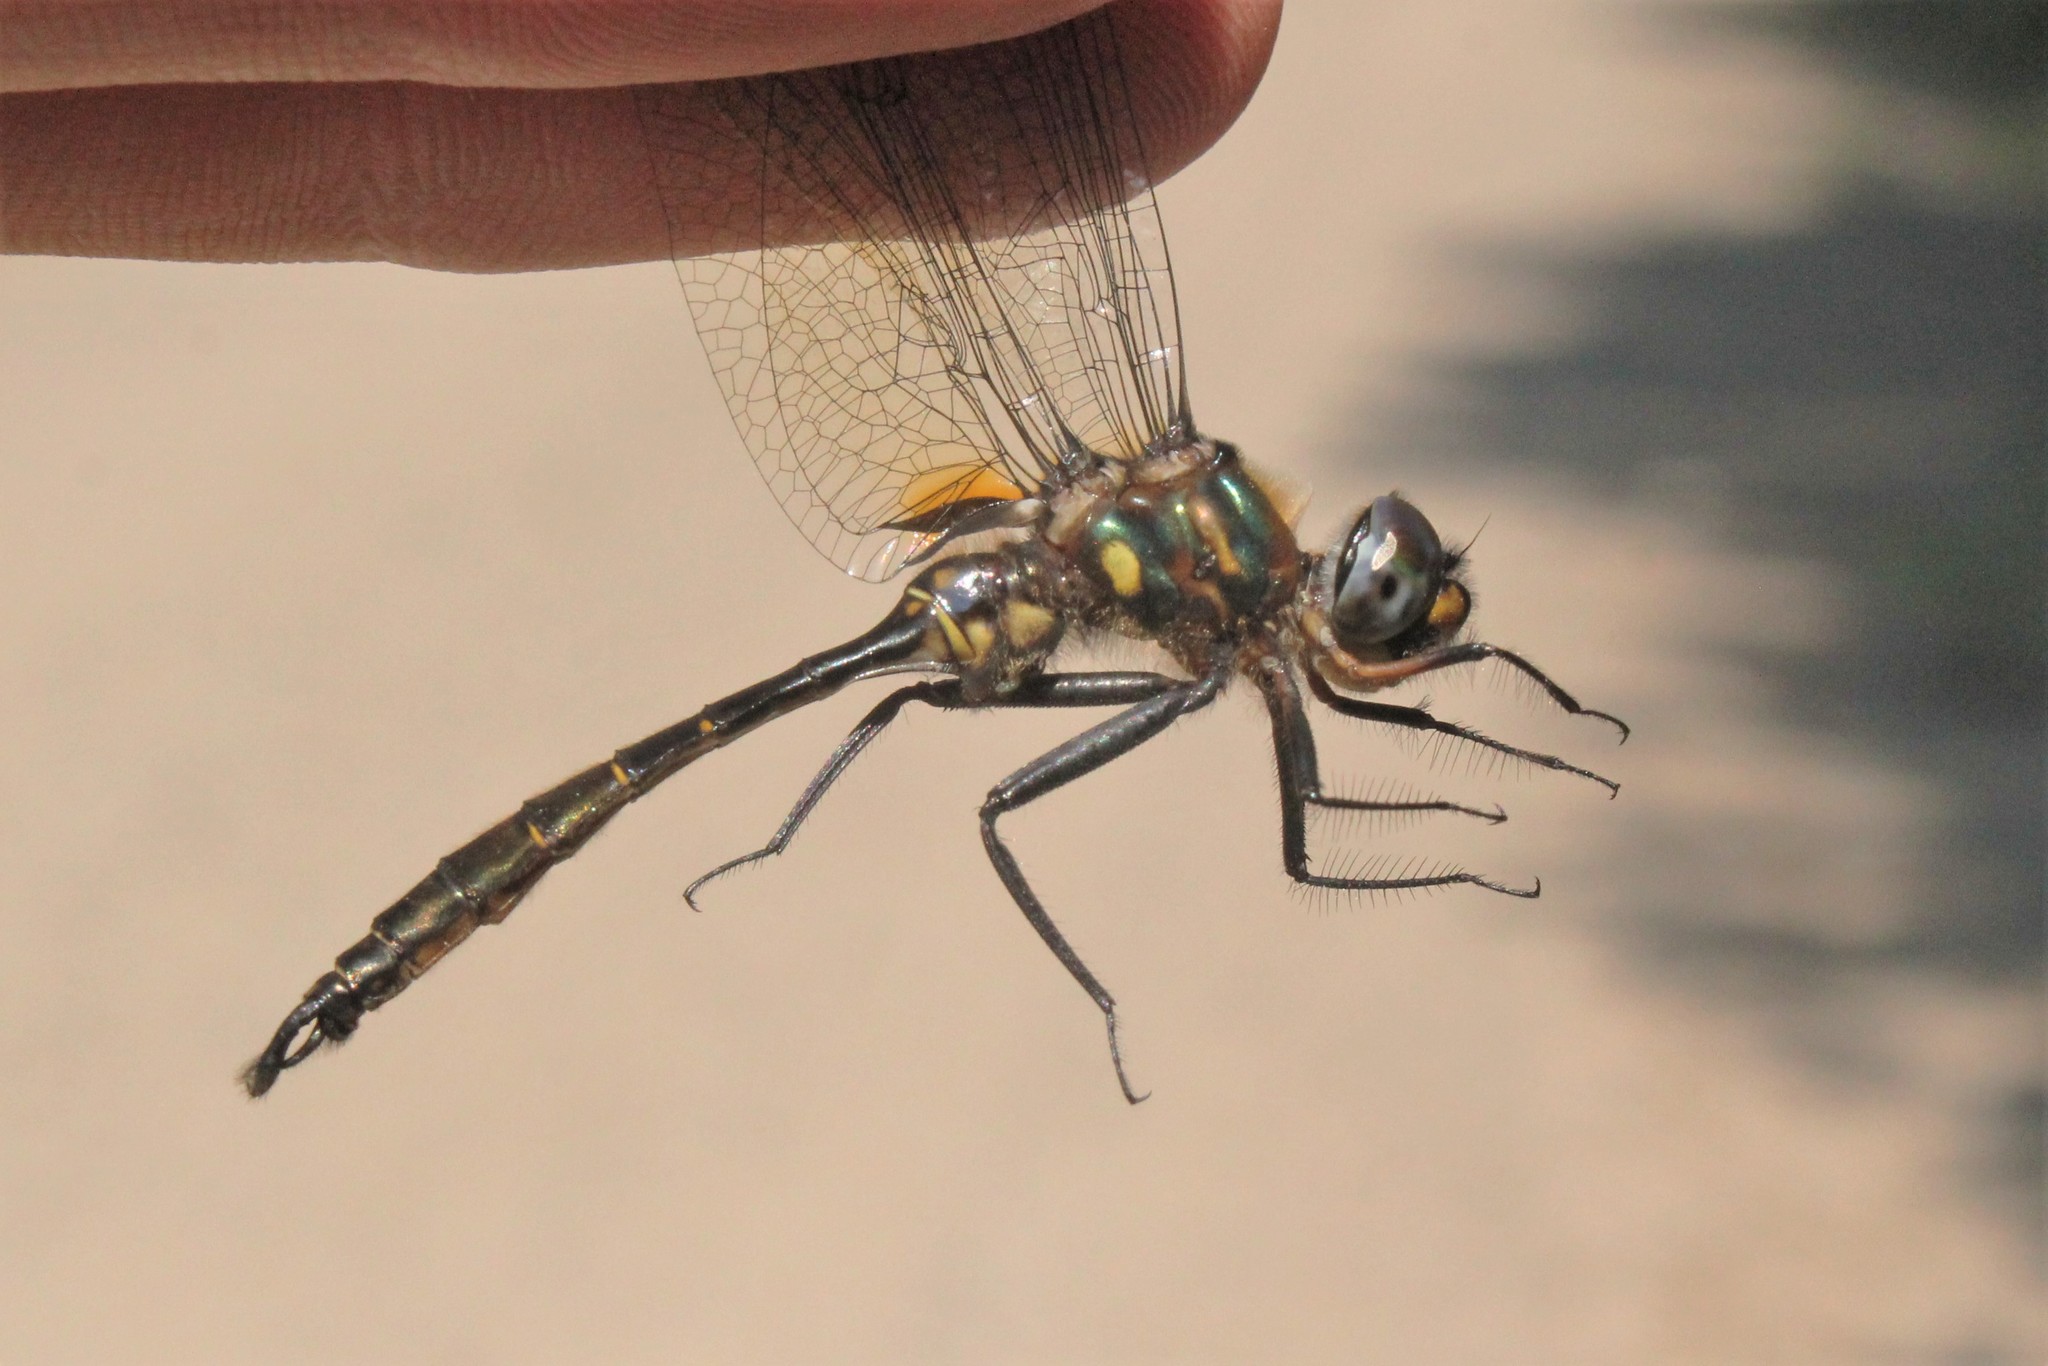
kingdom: Animalia
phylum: Arthropoda
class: Insecta
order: Odonata
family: Corduliidae
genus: Somatochlora
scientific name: Somatochlora walshii
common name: Brush-tipped emerald
